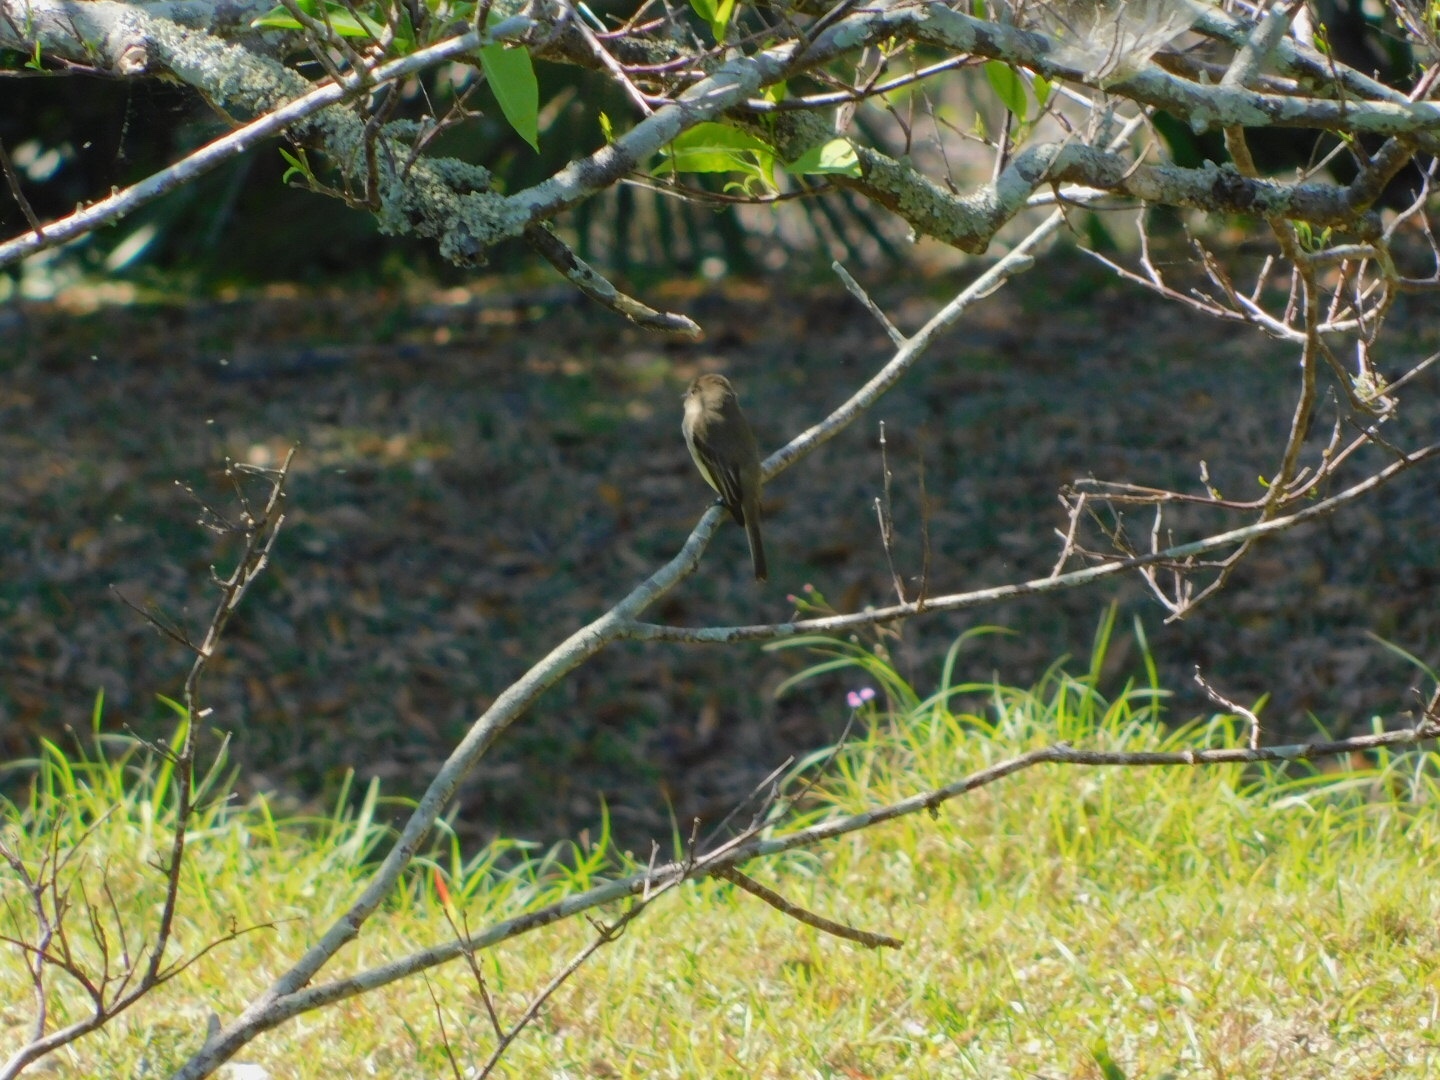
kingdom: Animalia
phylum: Chordata
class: Aves
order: Passeriformes
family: Tyrannidae
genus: Sayornis
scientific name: Sayornis phoebe
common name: Eastern phoebe
